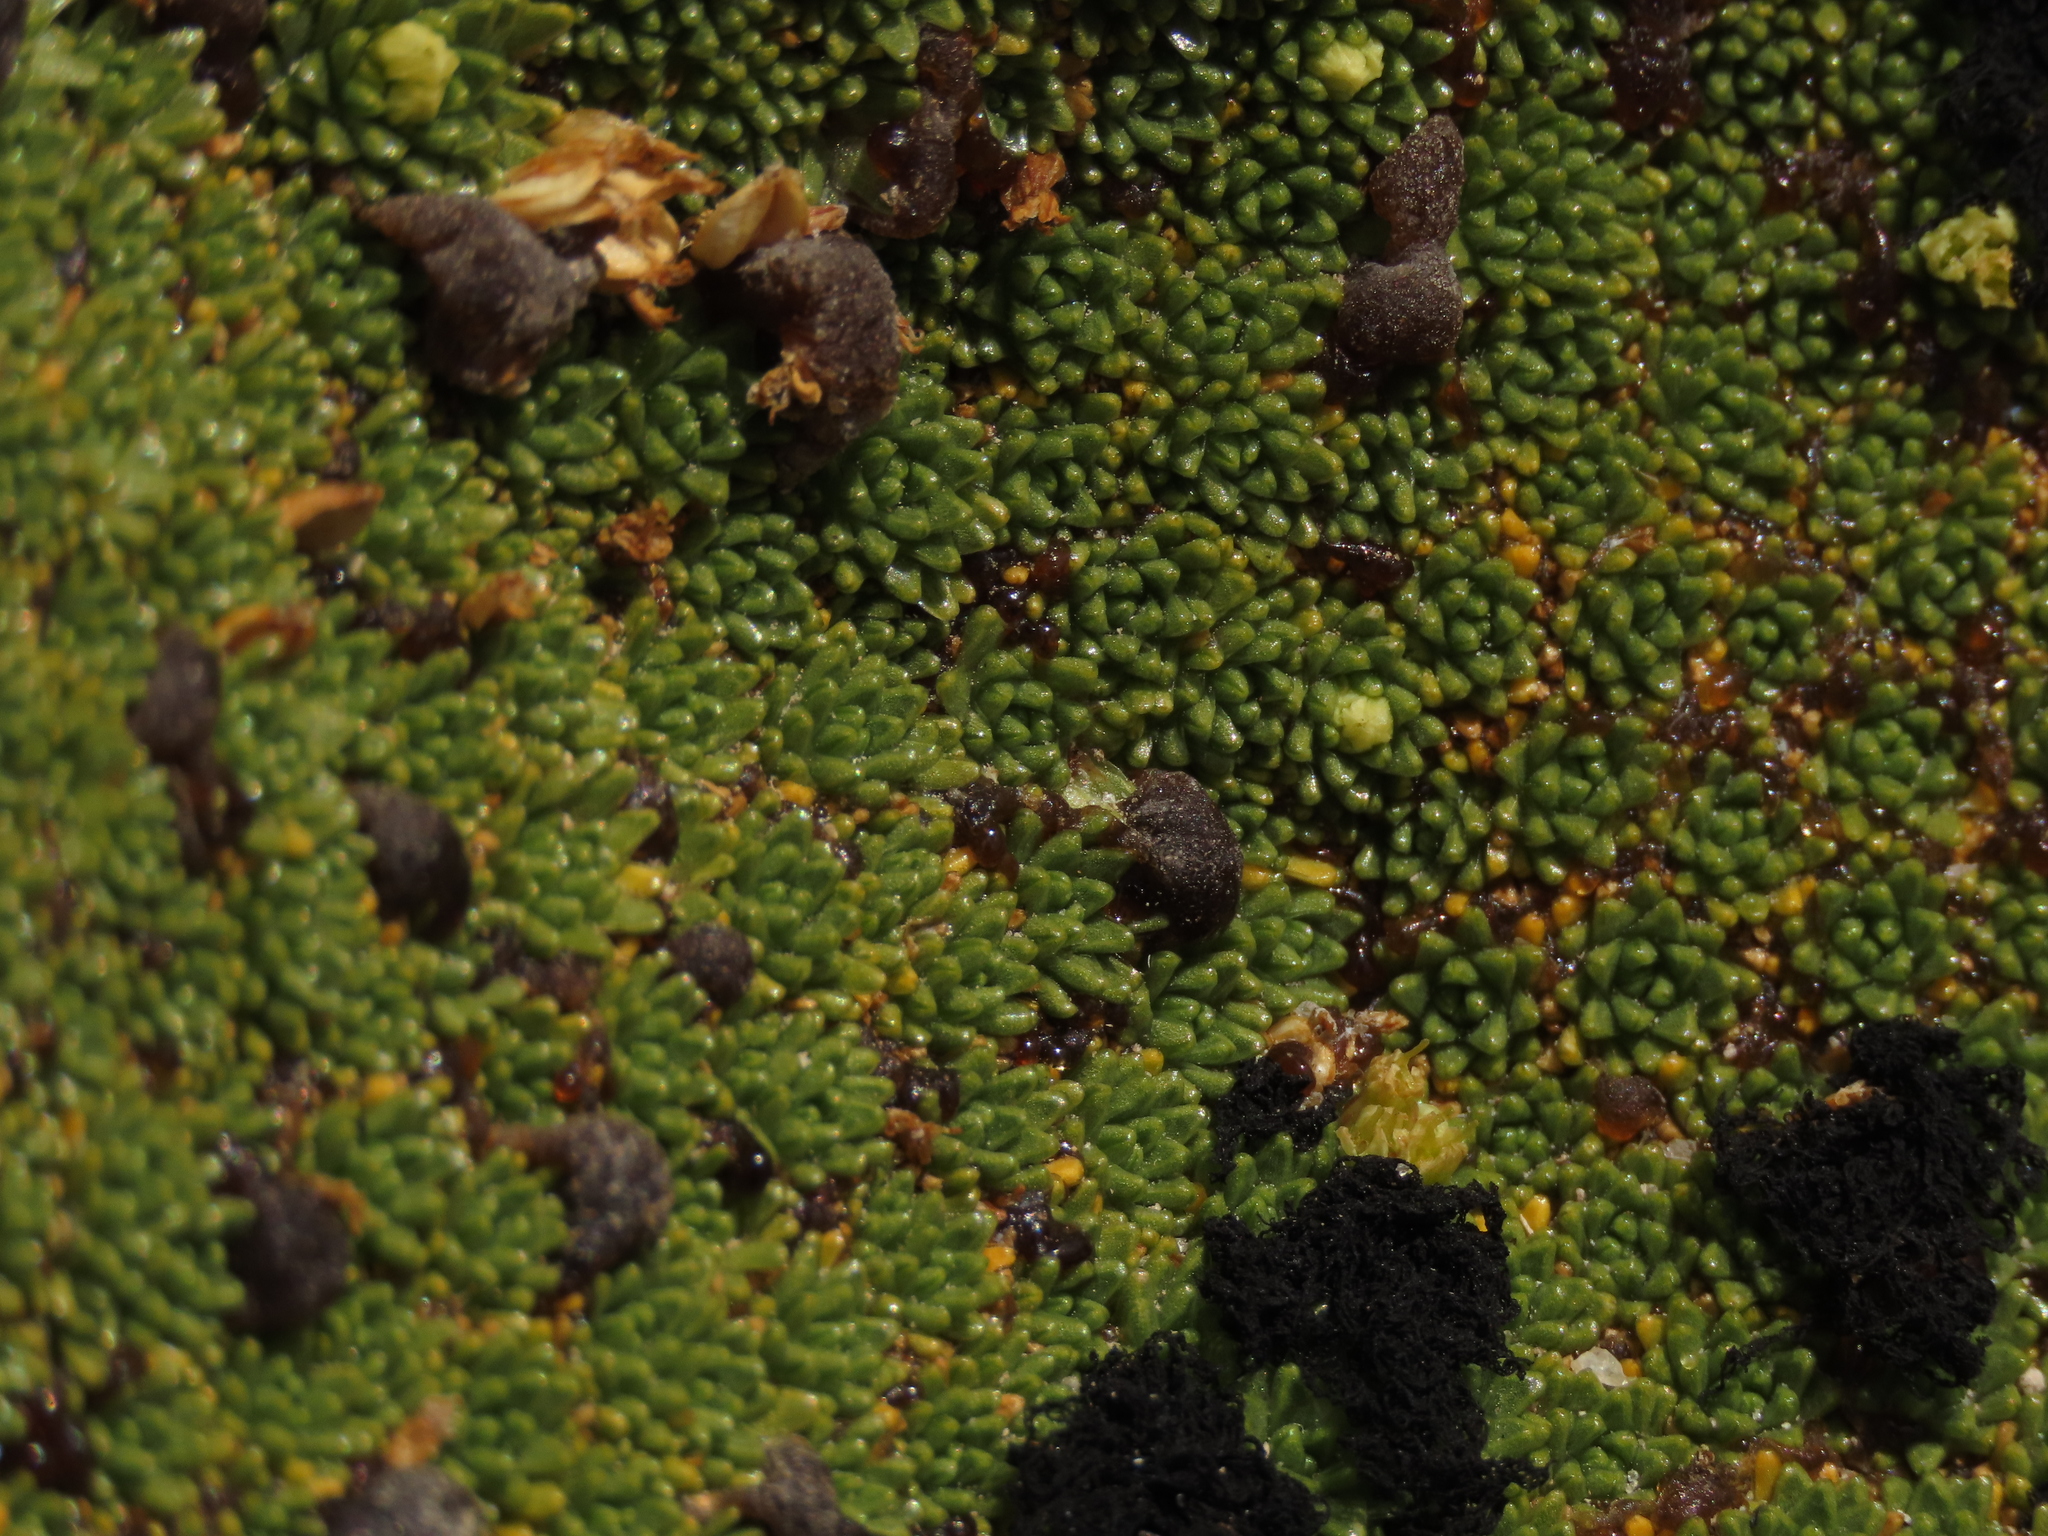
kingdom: Plantae
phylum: Tracheophyta
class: Magnoliopsida
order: Apiales
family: Apiaceae
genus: Azorella
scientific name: Azorella compacta
